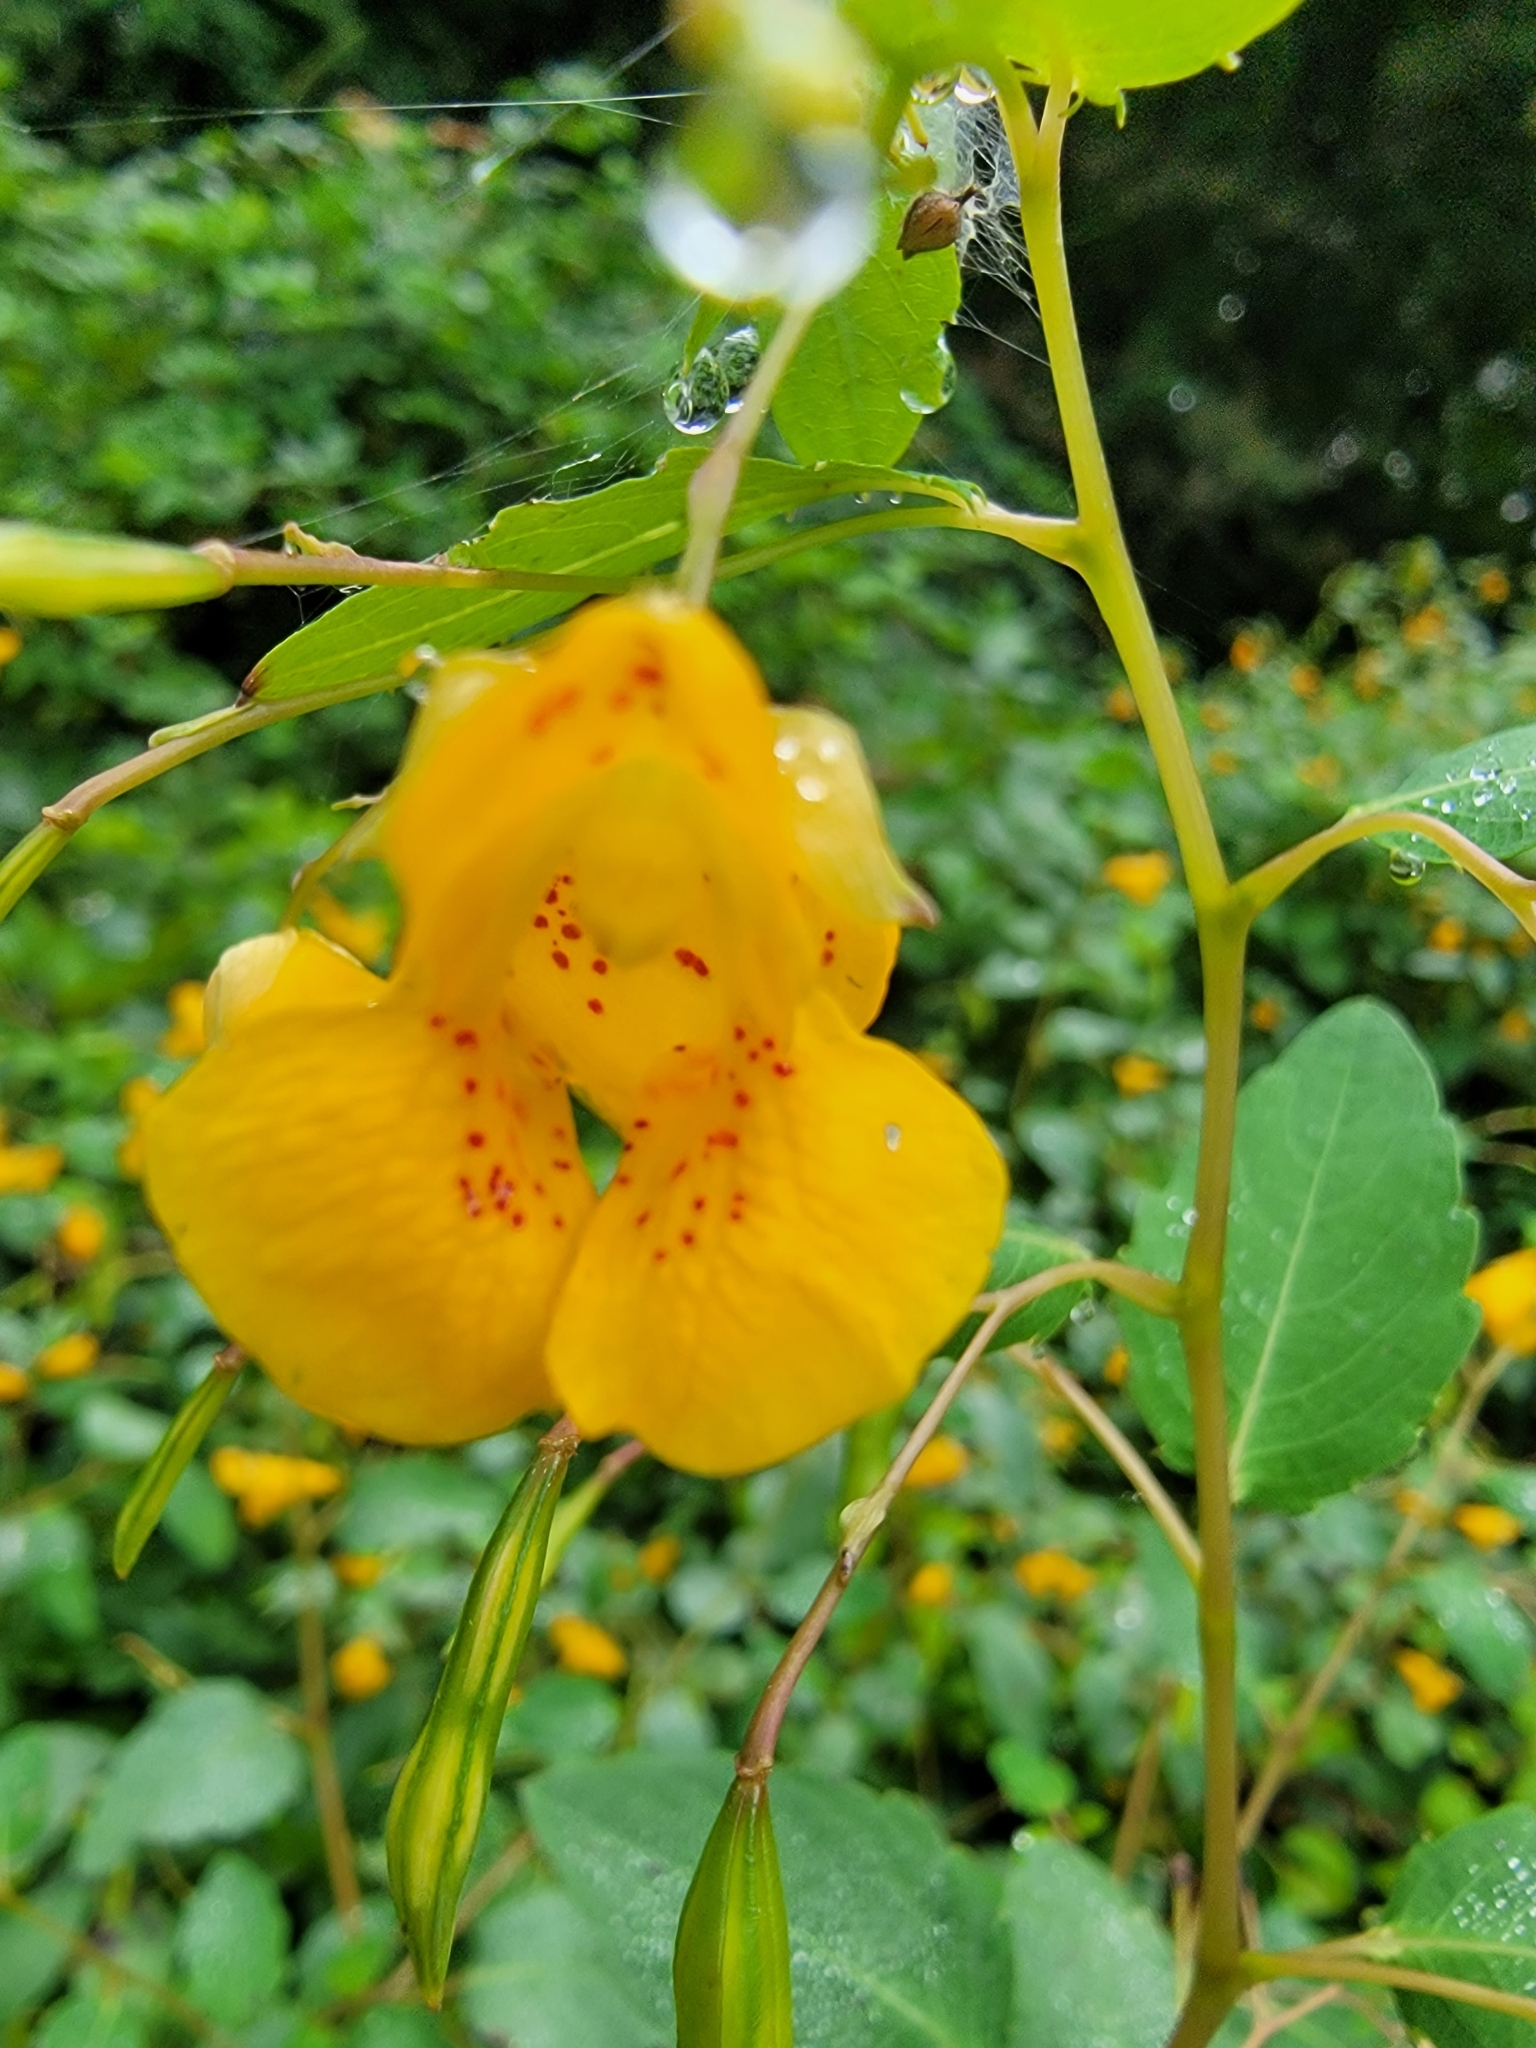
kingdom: Plantae
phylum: Tracheophyta
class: Magnoliopsida
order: Ericales
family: Balsaminaceae
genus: Impatiens
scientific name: Impatiens capensis
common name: Orange balsam
